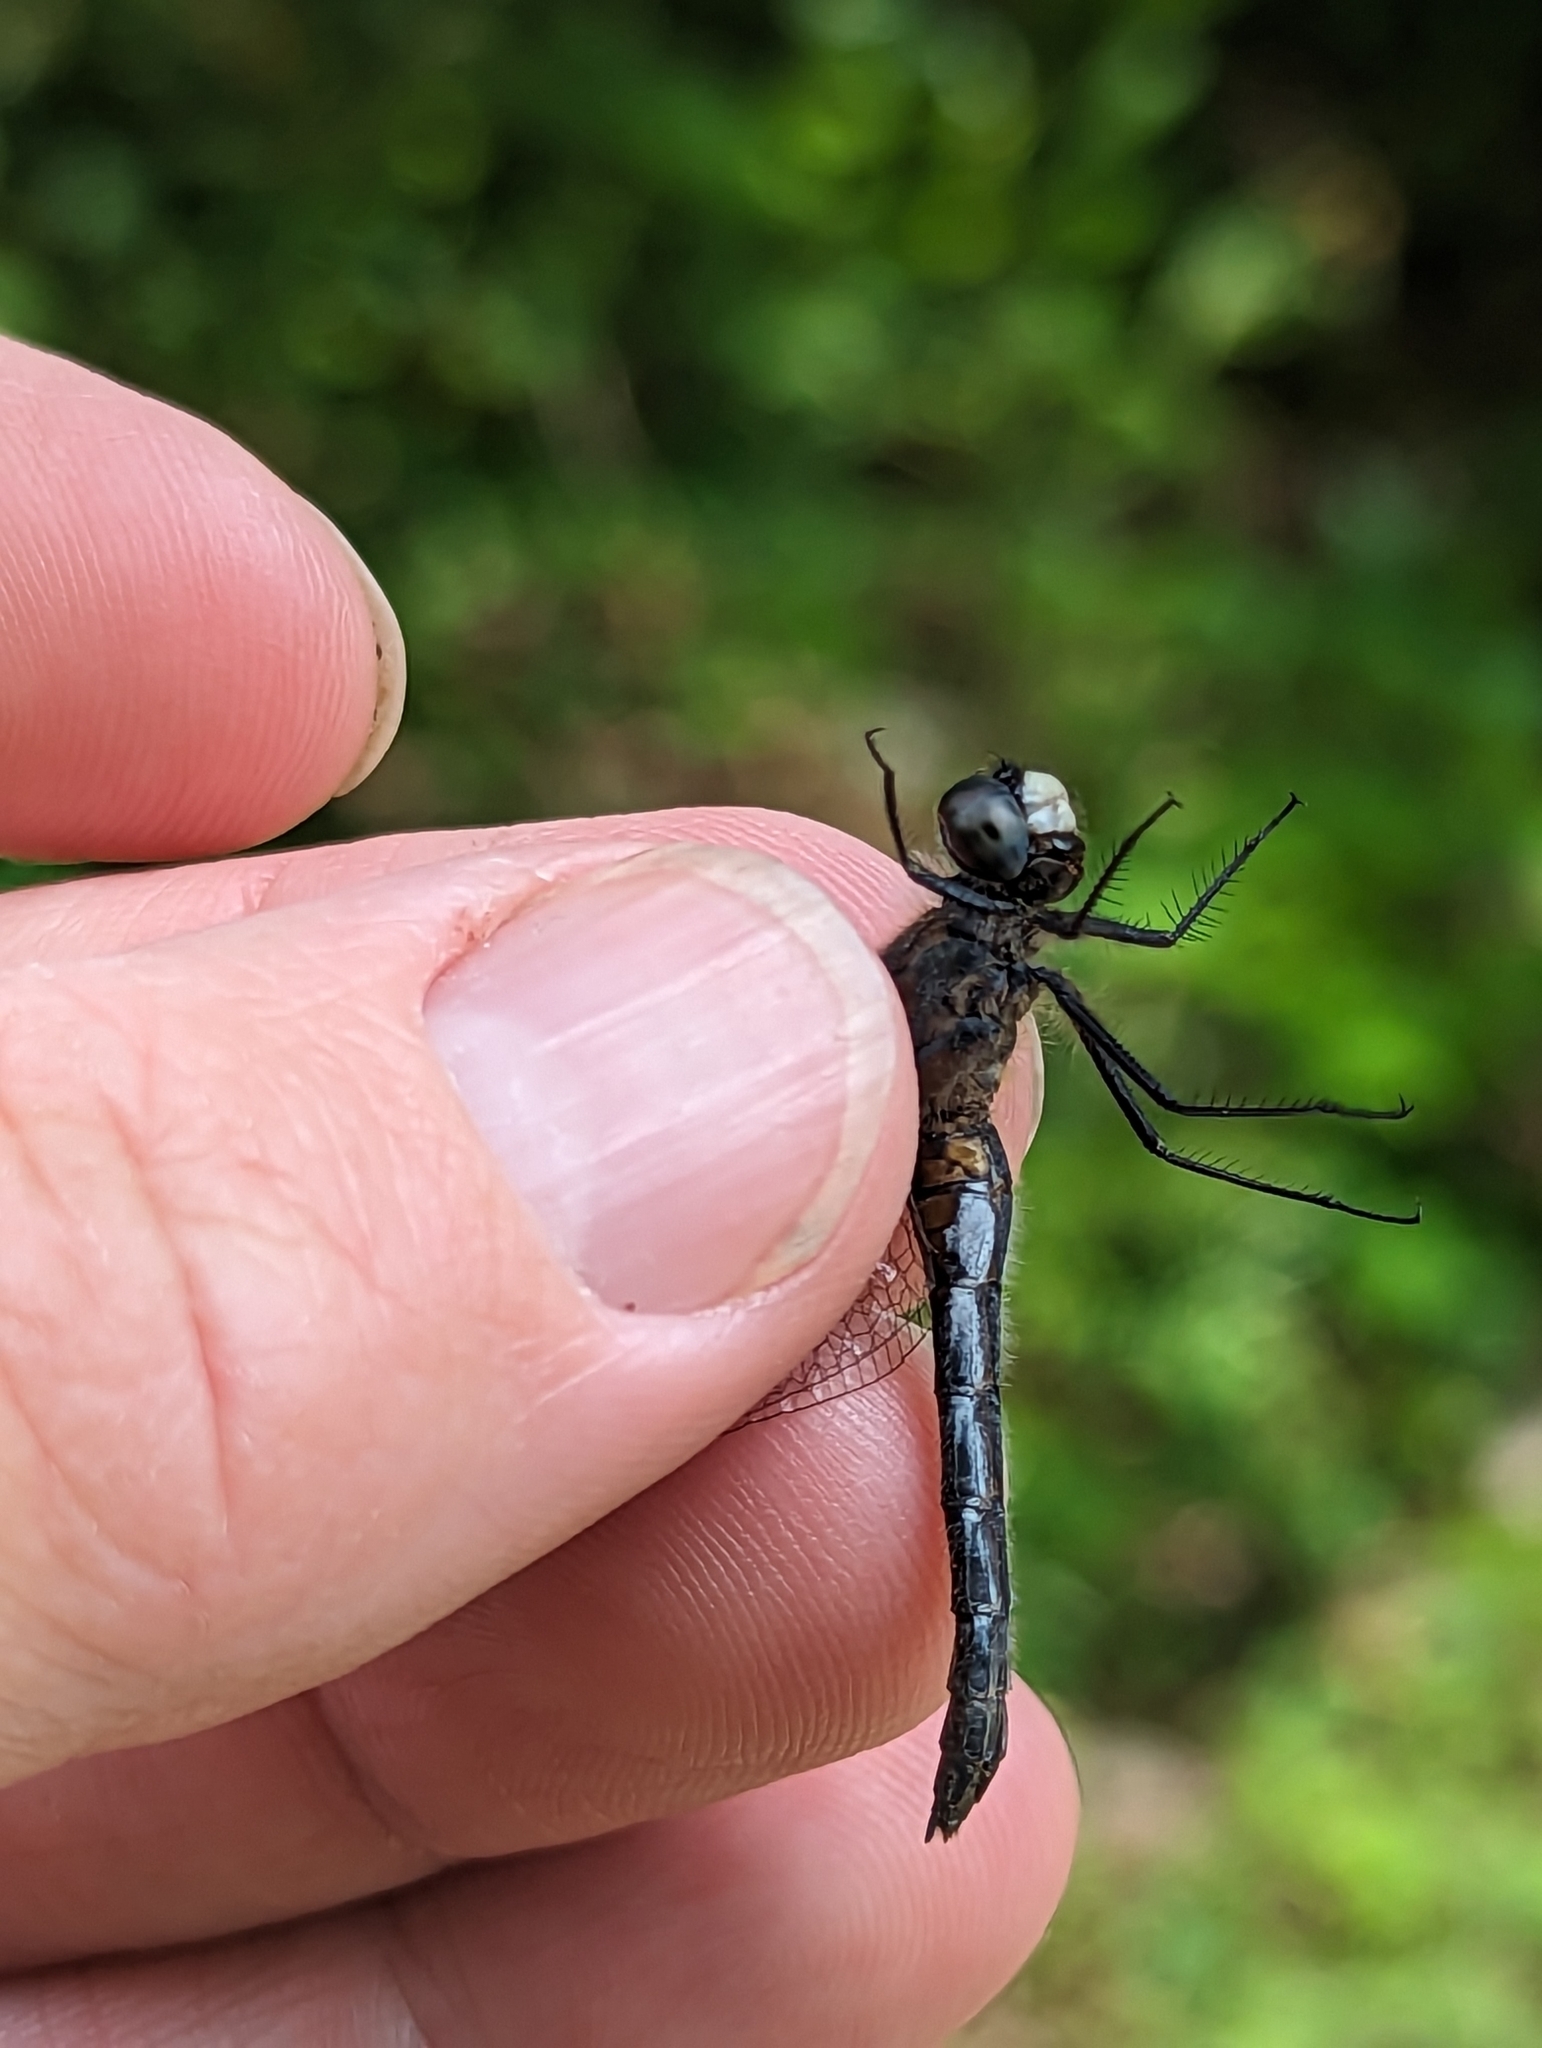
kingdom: Animalia
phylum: Arthropoda
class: Insecta
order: Odonata
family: Libellulidae
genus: Leucorrhinia
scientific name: Leucorrhinia proxima
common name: Belted whiteface
